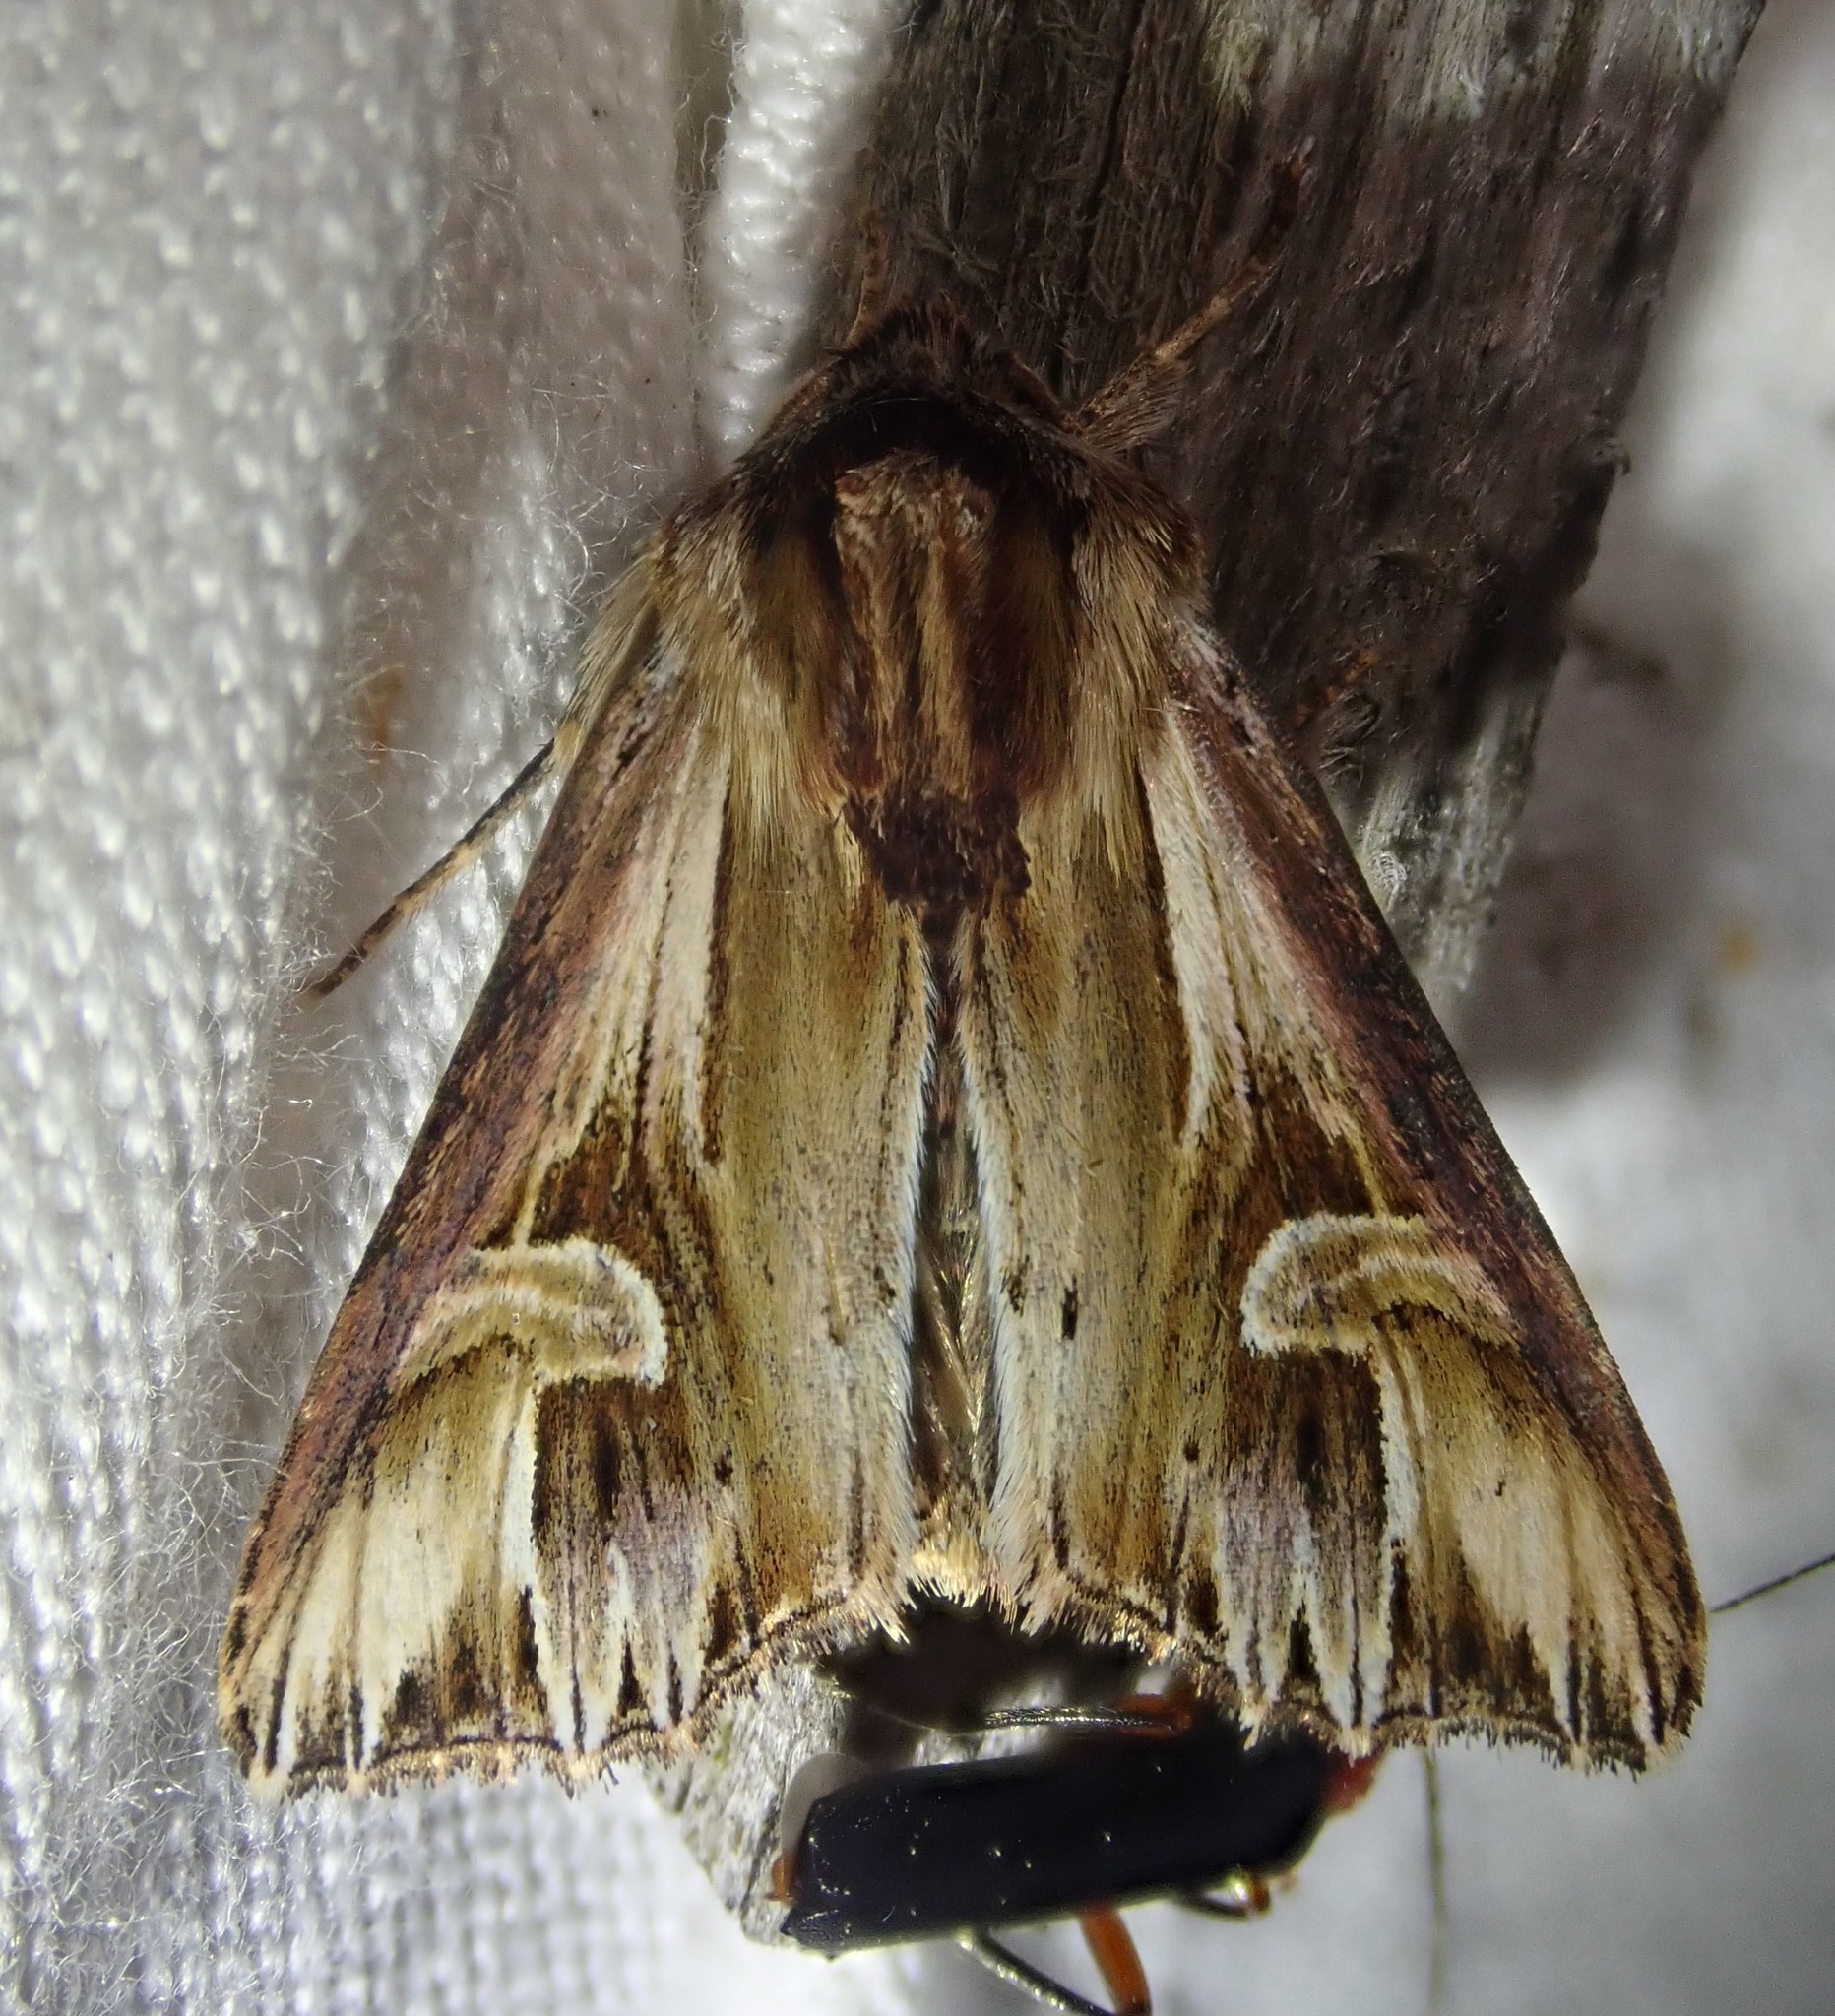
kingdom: Animalia
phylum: Arthropoda
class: Insecta
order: Lepidoptera
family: Noctuidae
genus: Actinotia
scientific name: Actinotia polyodon
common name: Purple cloud
